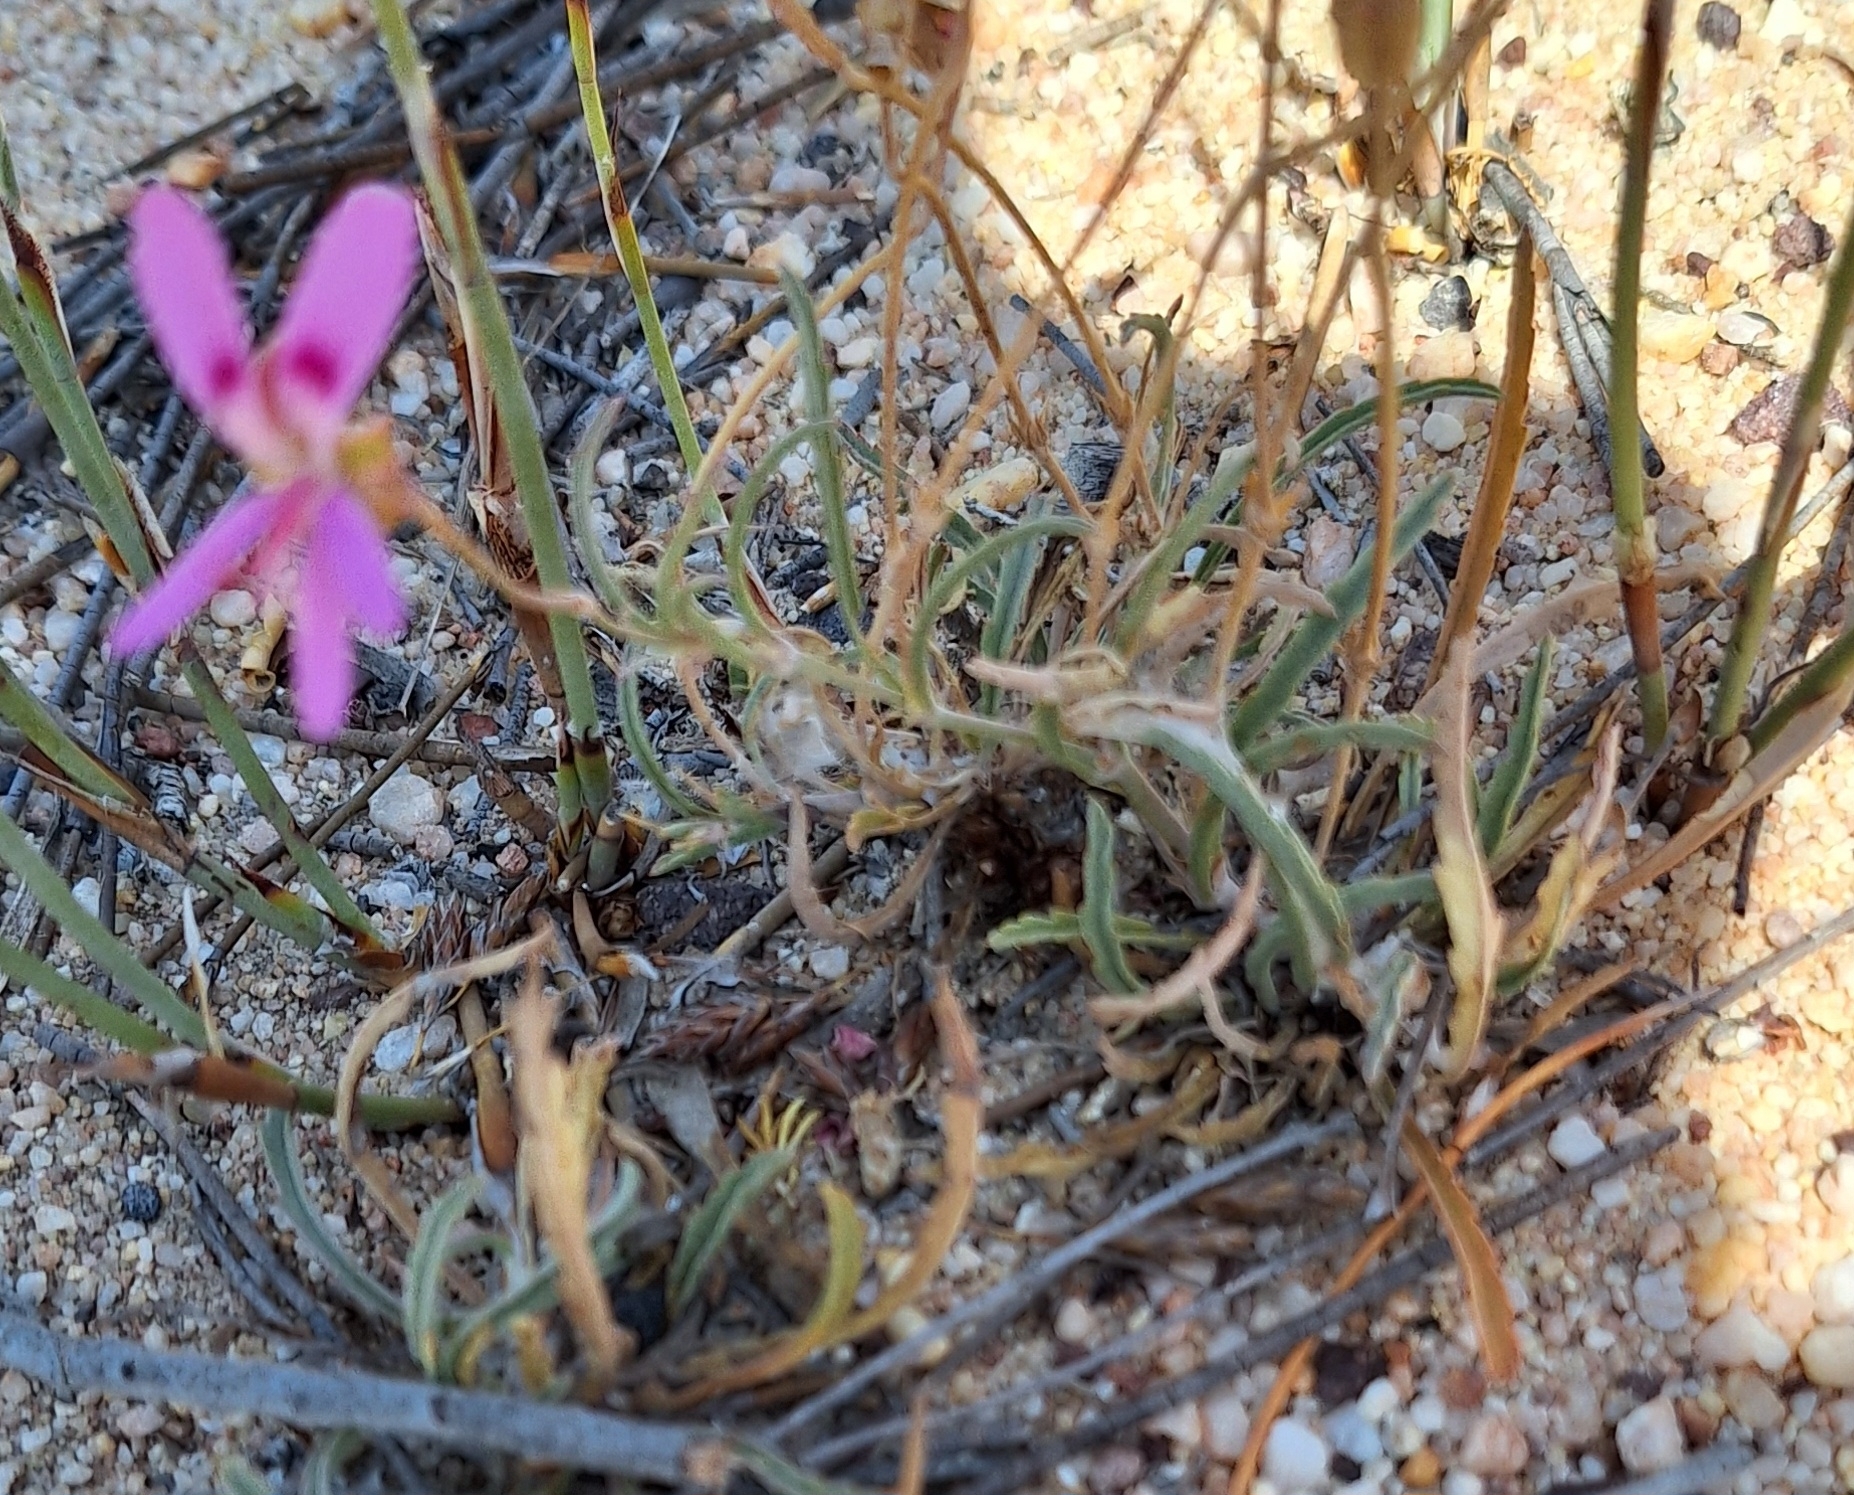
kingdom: Plantae
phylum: Tracheophyta
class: Magnoliopsida
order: Geraniales
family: Geraniaceae
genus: Pelargonium
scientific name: Pelargonium coronopifolium
